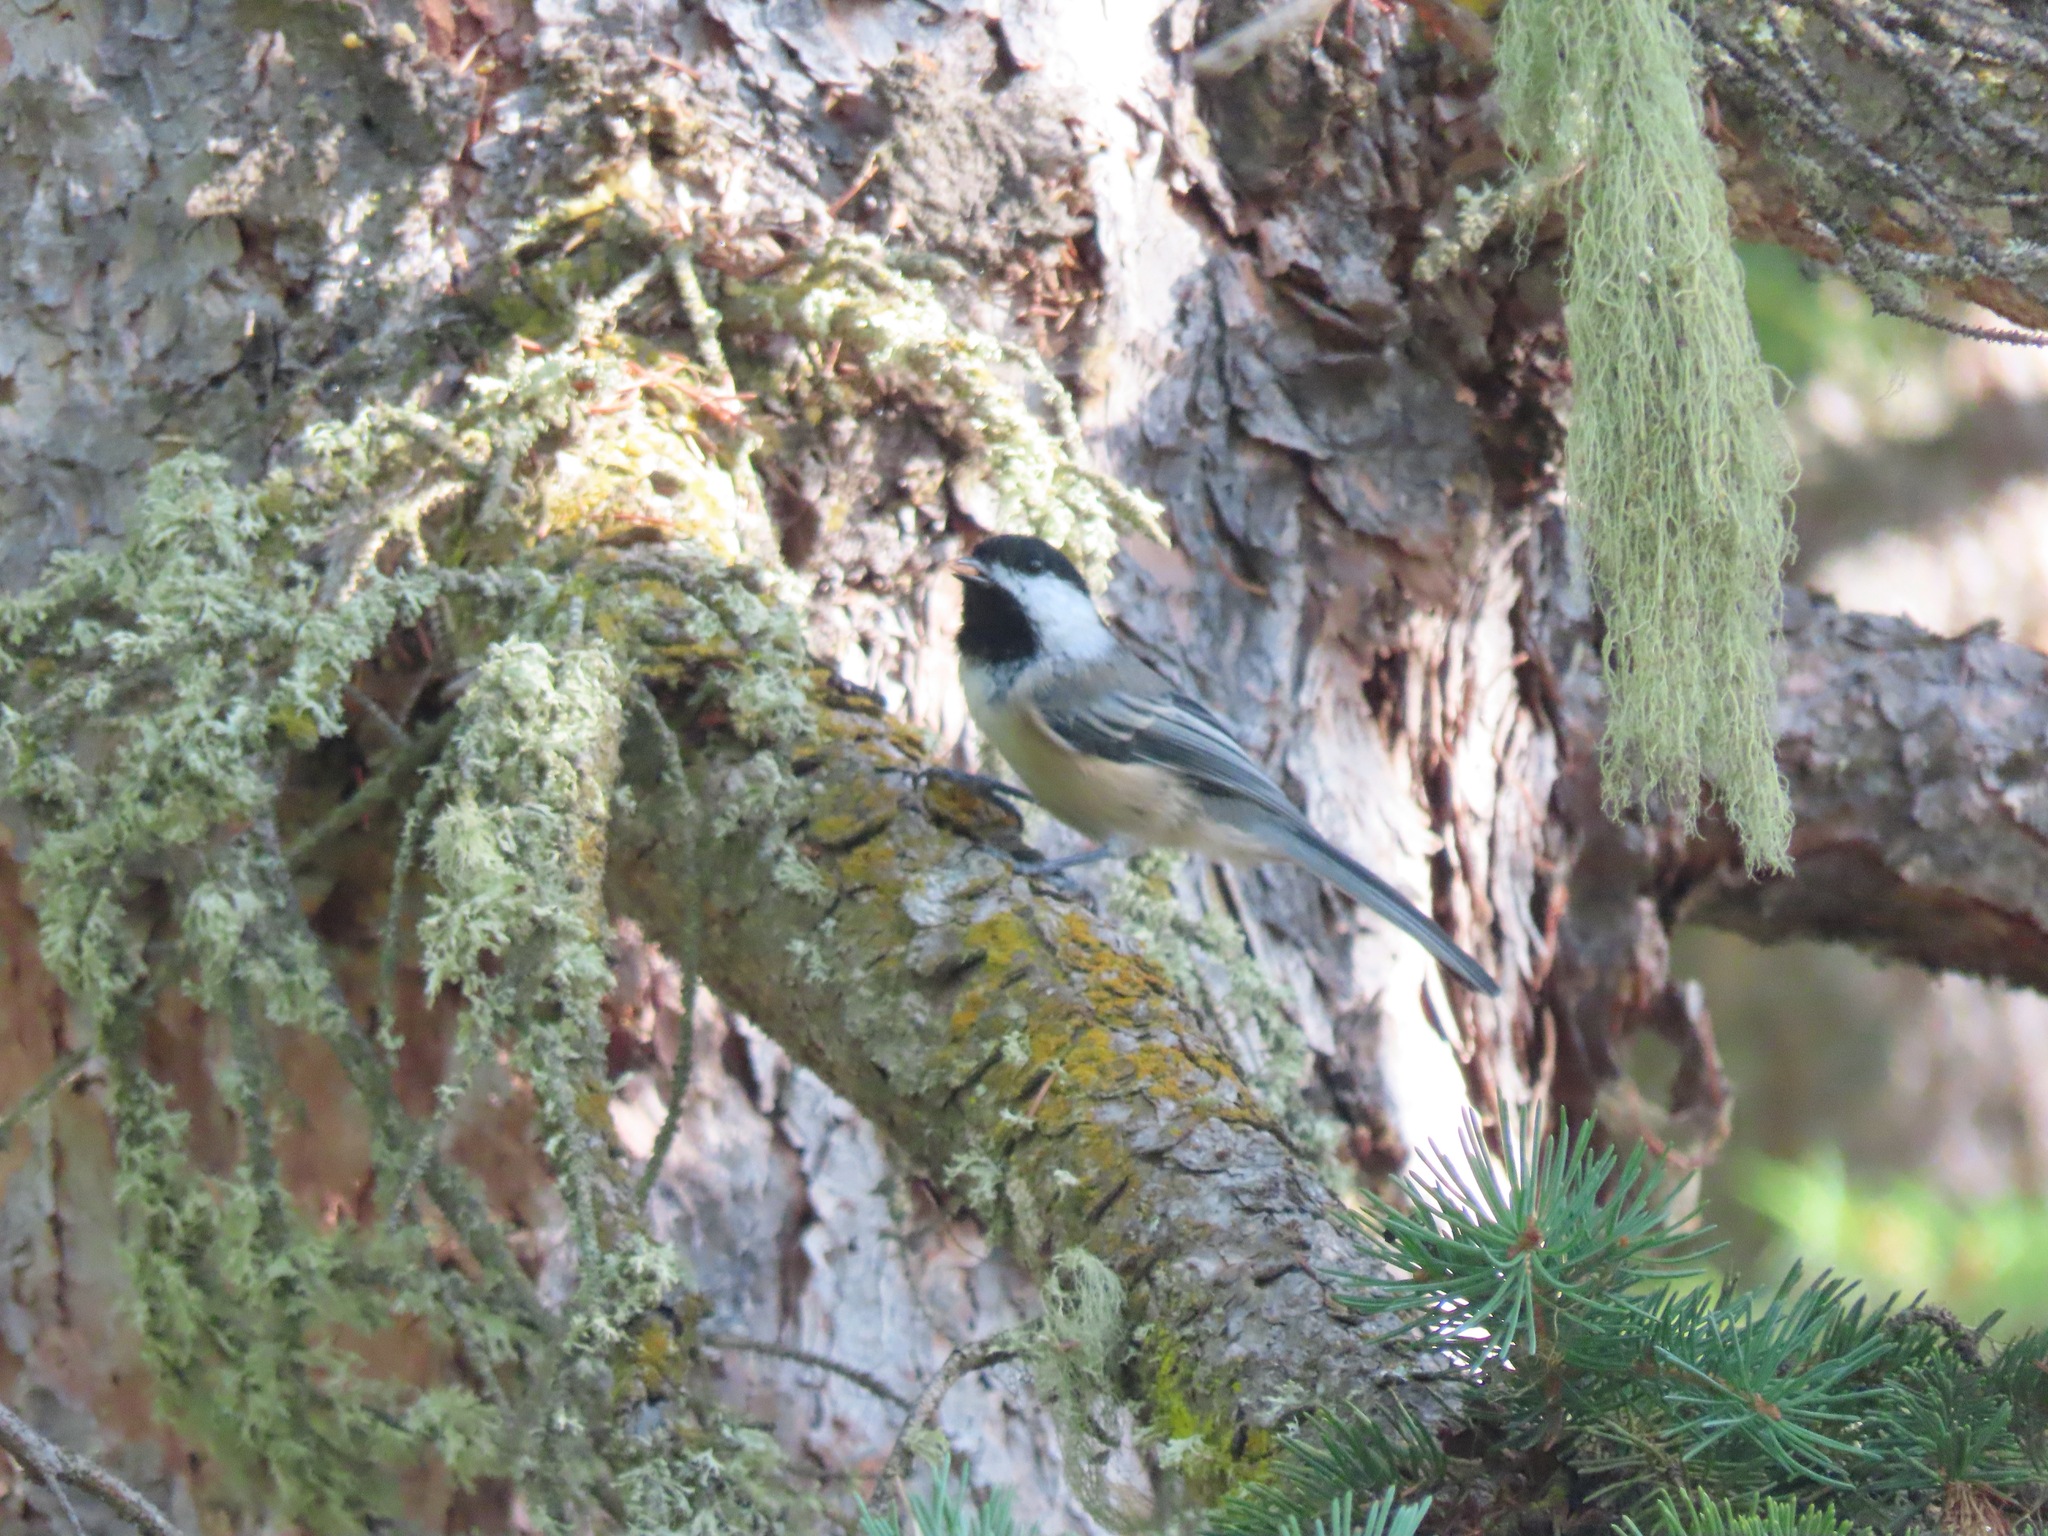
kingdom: Animalia
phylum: Chordata
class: Aves
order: Passeriformes
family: Paridae
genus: Poecile
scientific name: Poecile atricapillus
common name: Black-capped chickadee
